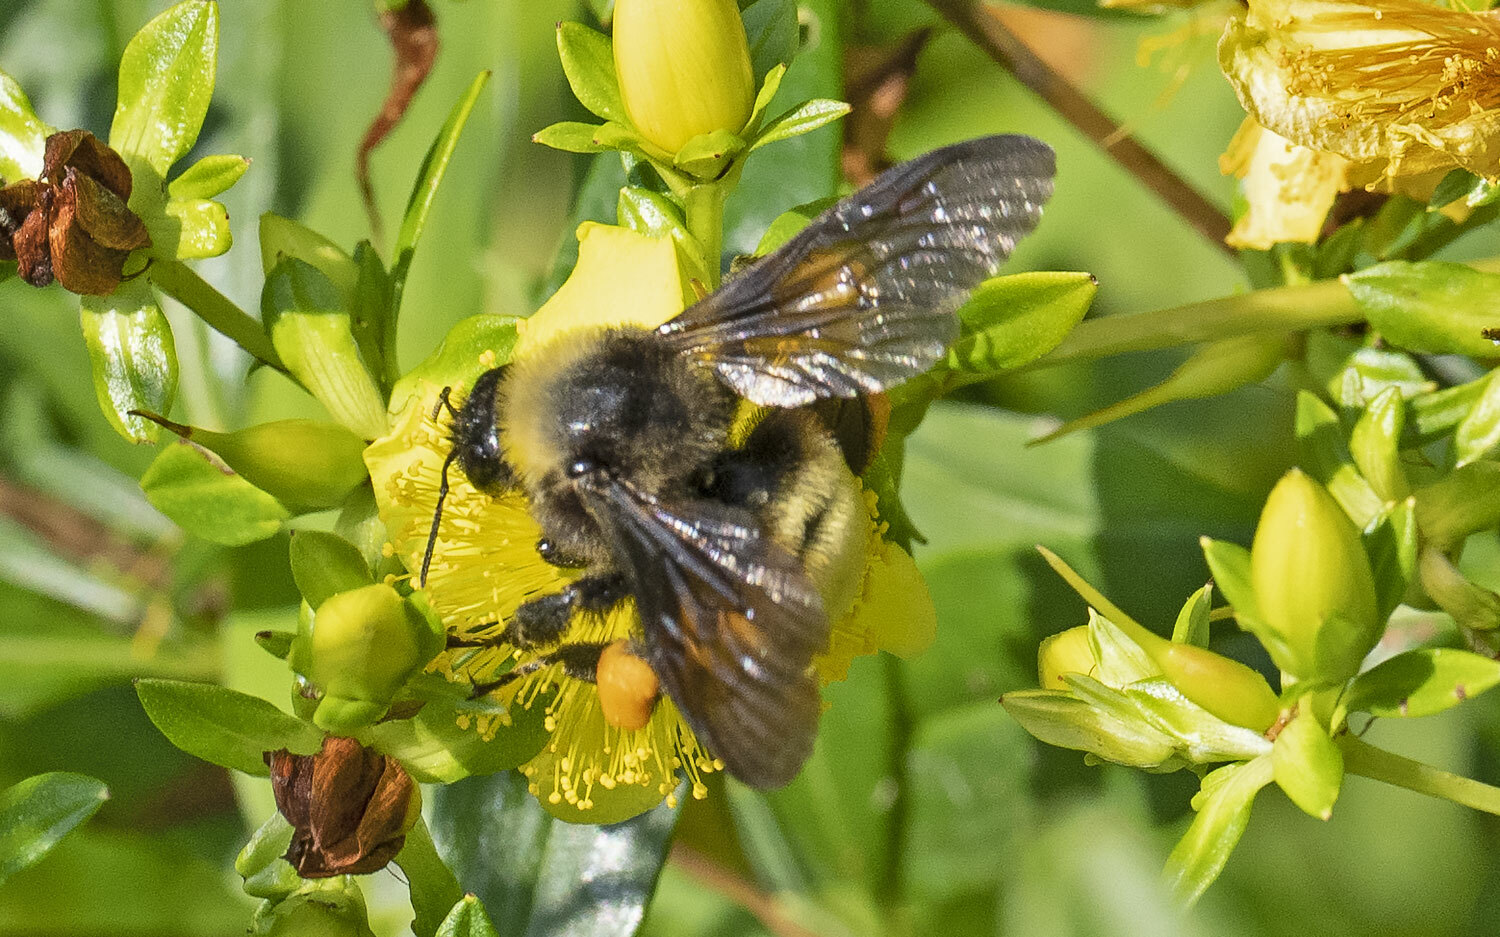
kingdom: Animalia
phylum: Arthropoda
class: Insecta
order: Hymenoptera
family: Apidae
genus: Bombus
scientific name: Bombus pensylvanicus
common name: Bumble bee
